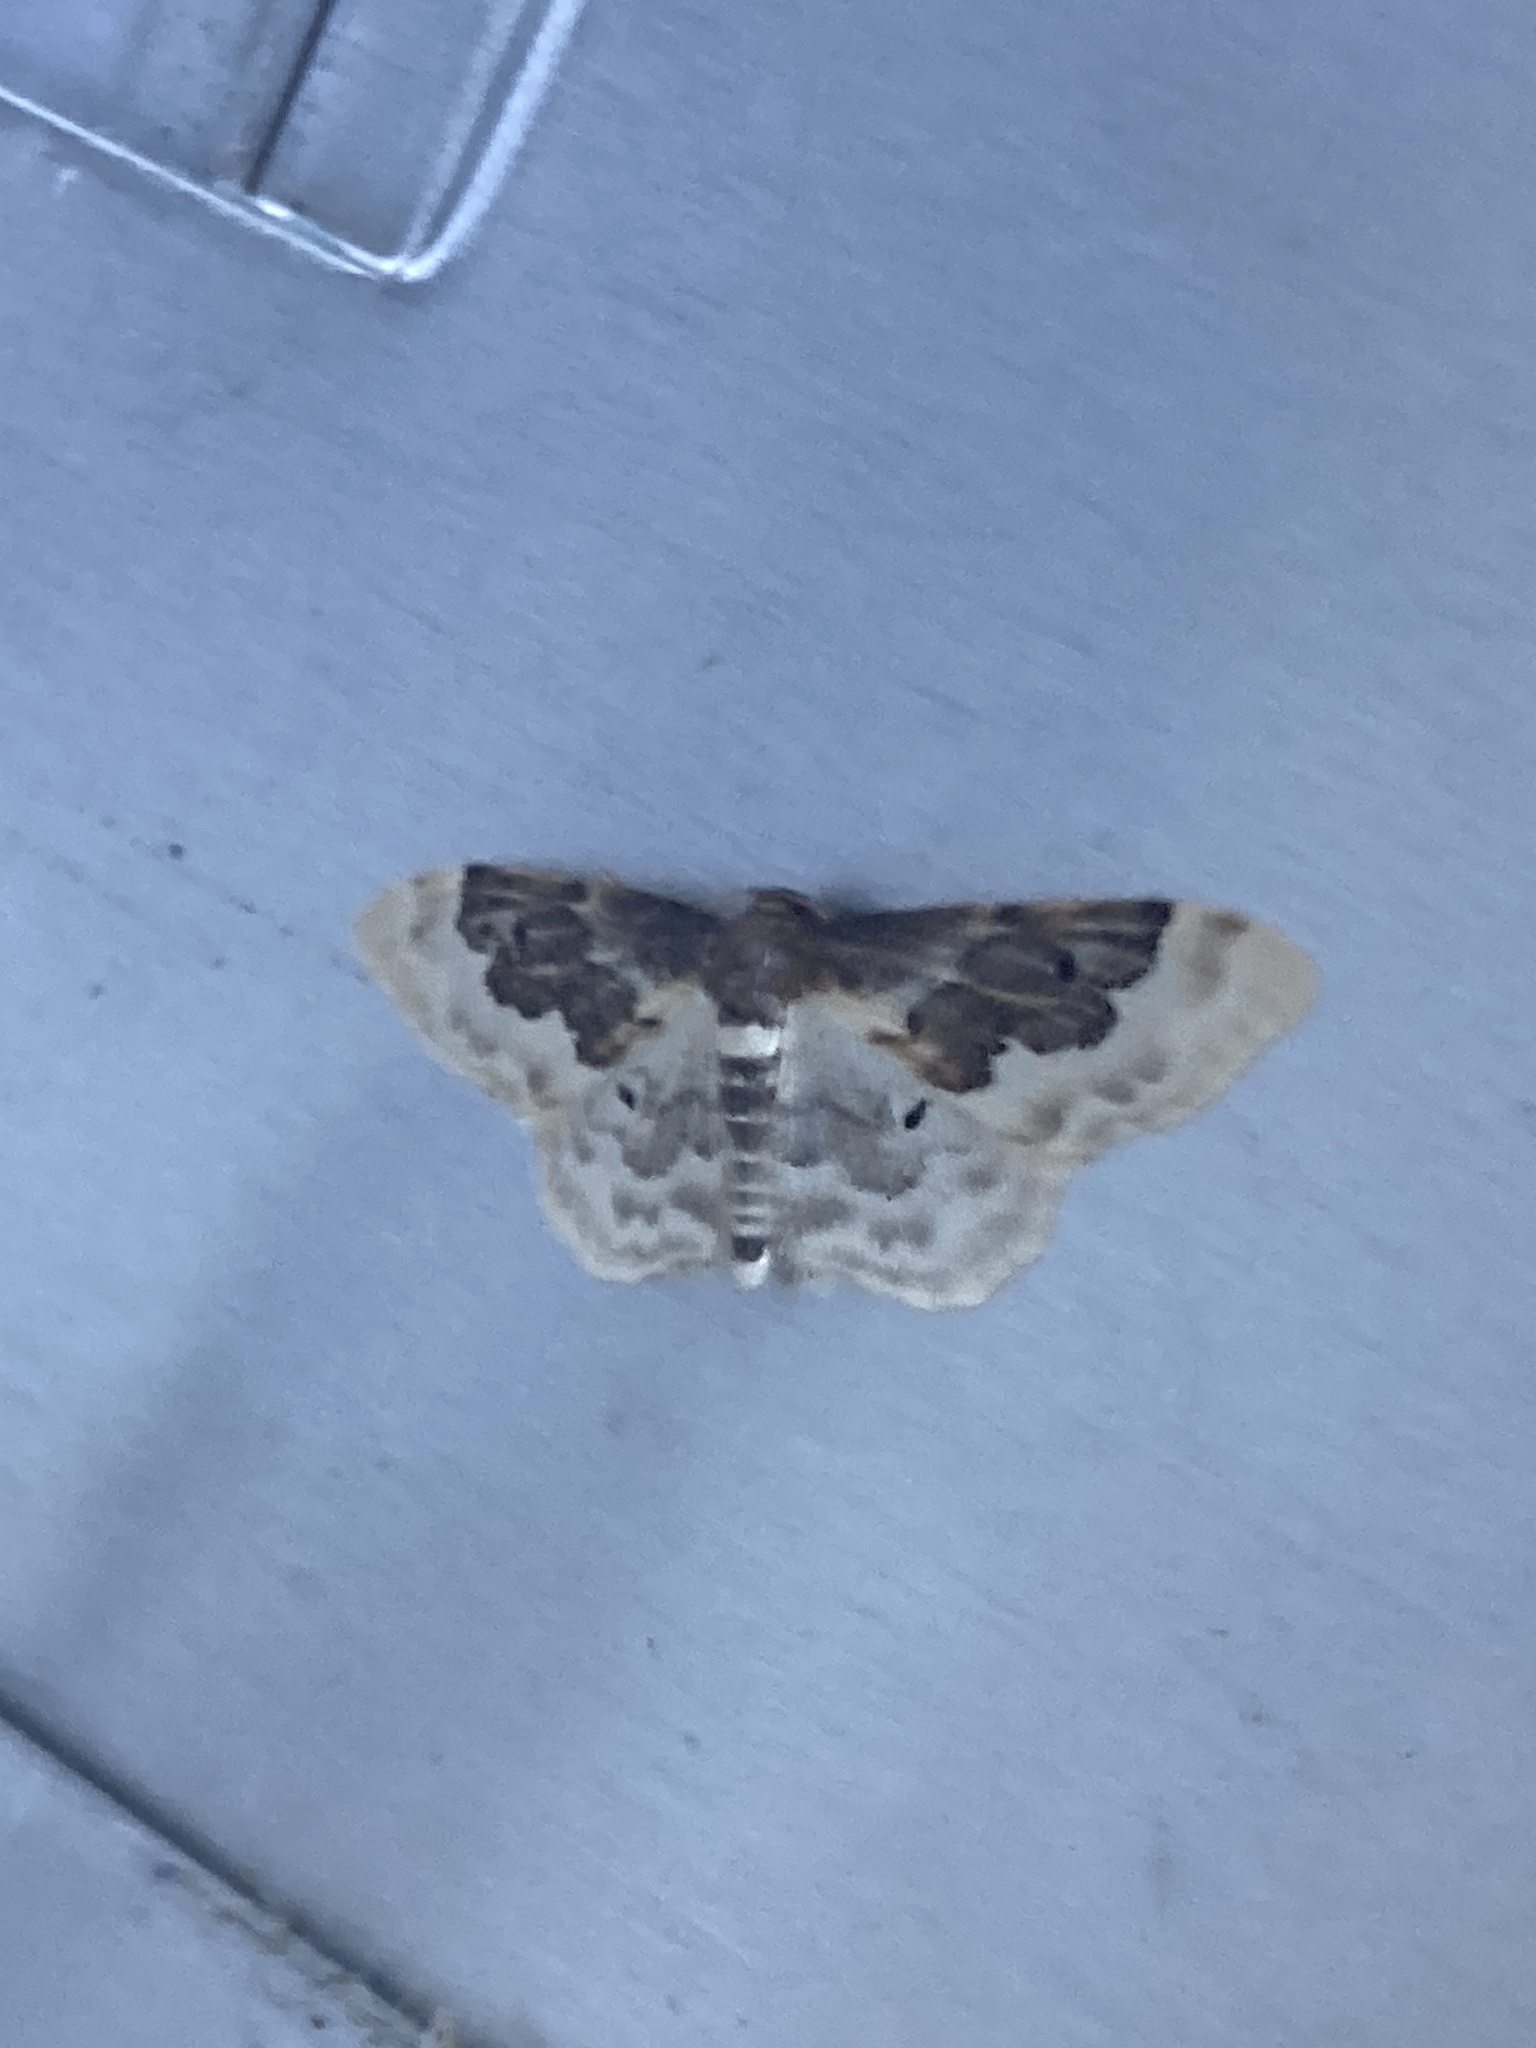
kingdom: Animalia
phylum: Arthropoda
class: Insecta
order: Lepidoptera
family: Geometridae
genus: Idaea
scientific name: Idaea rusticata
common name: Least carpet
